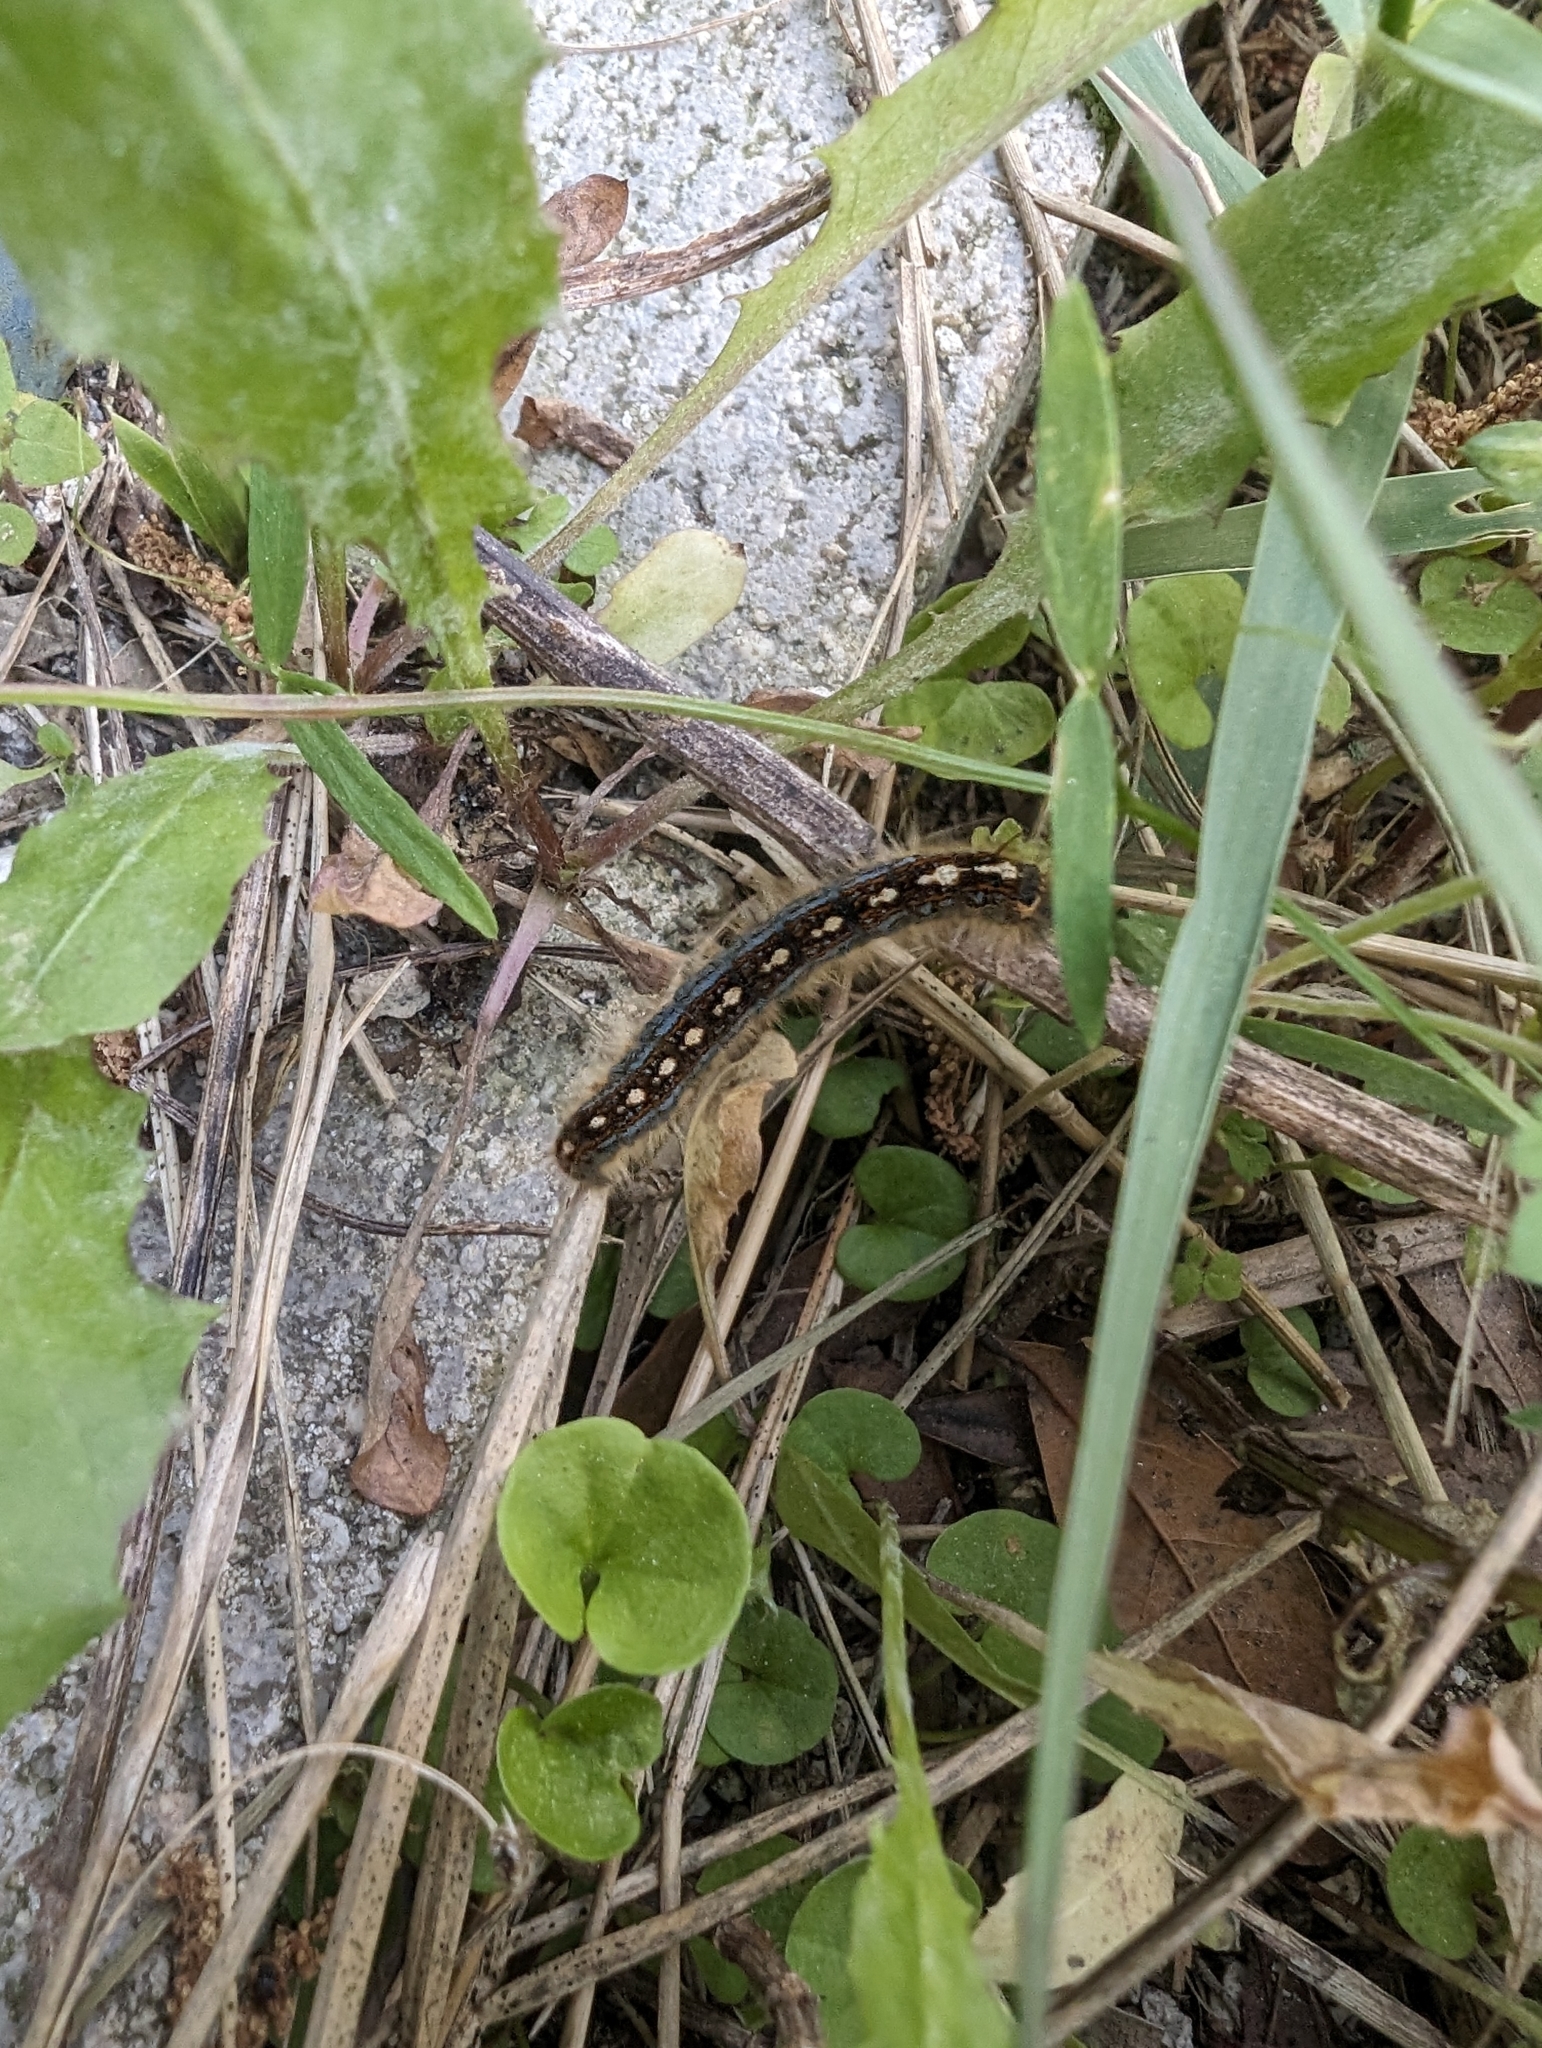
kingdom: Animalia
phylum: Arthropoda
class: Insecta
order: Lepidoptera
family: Lasiocampidae
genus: Malacosoma
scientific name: Malacosoma disstria
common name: Forest tent caterpillar
